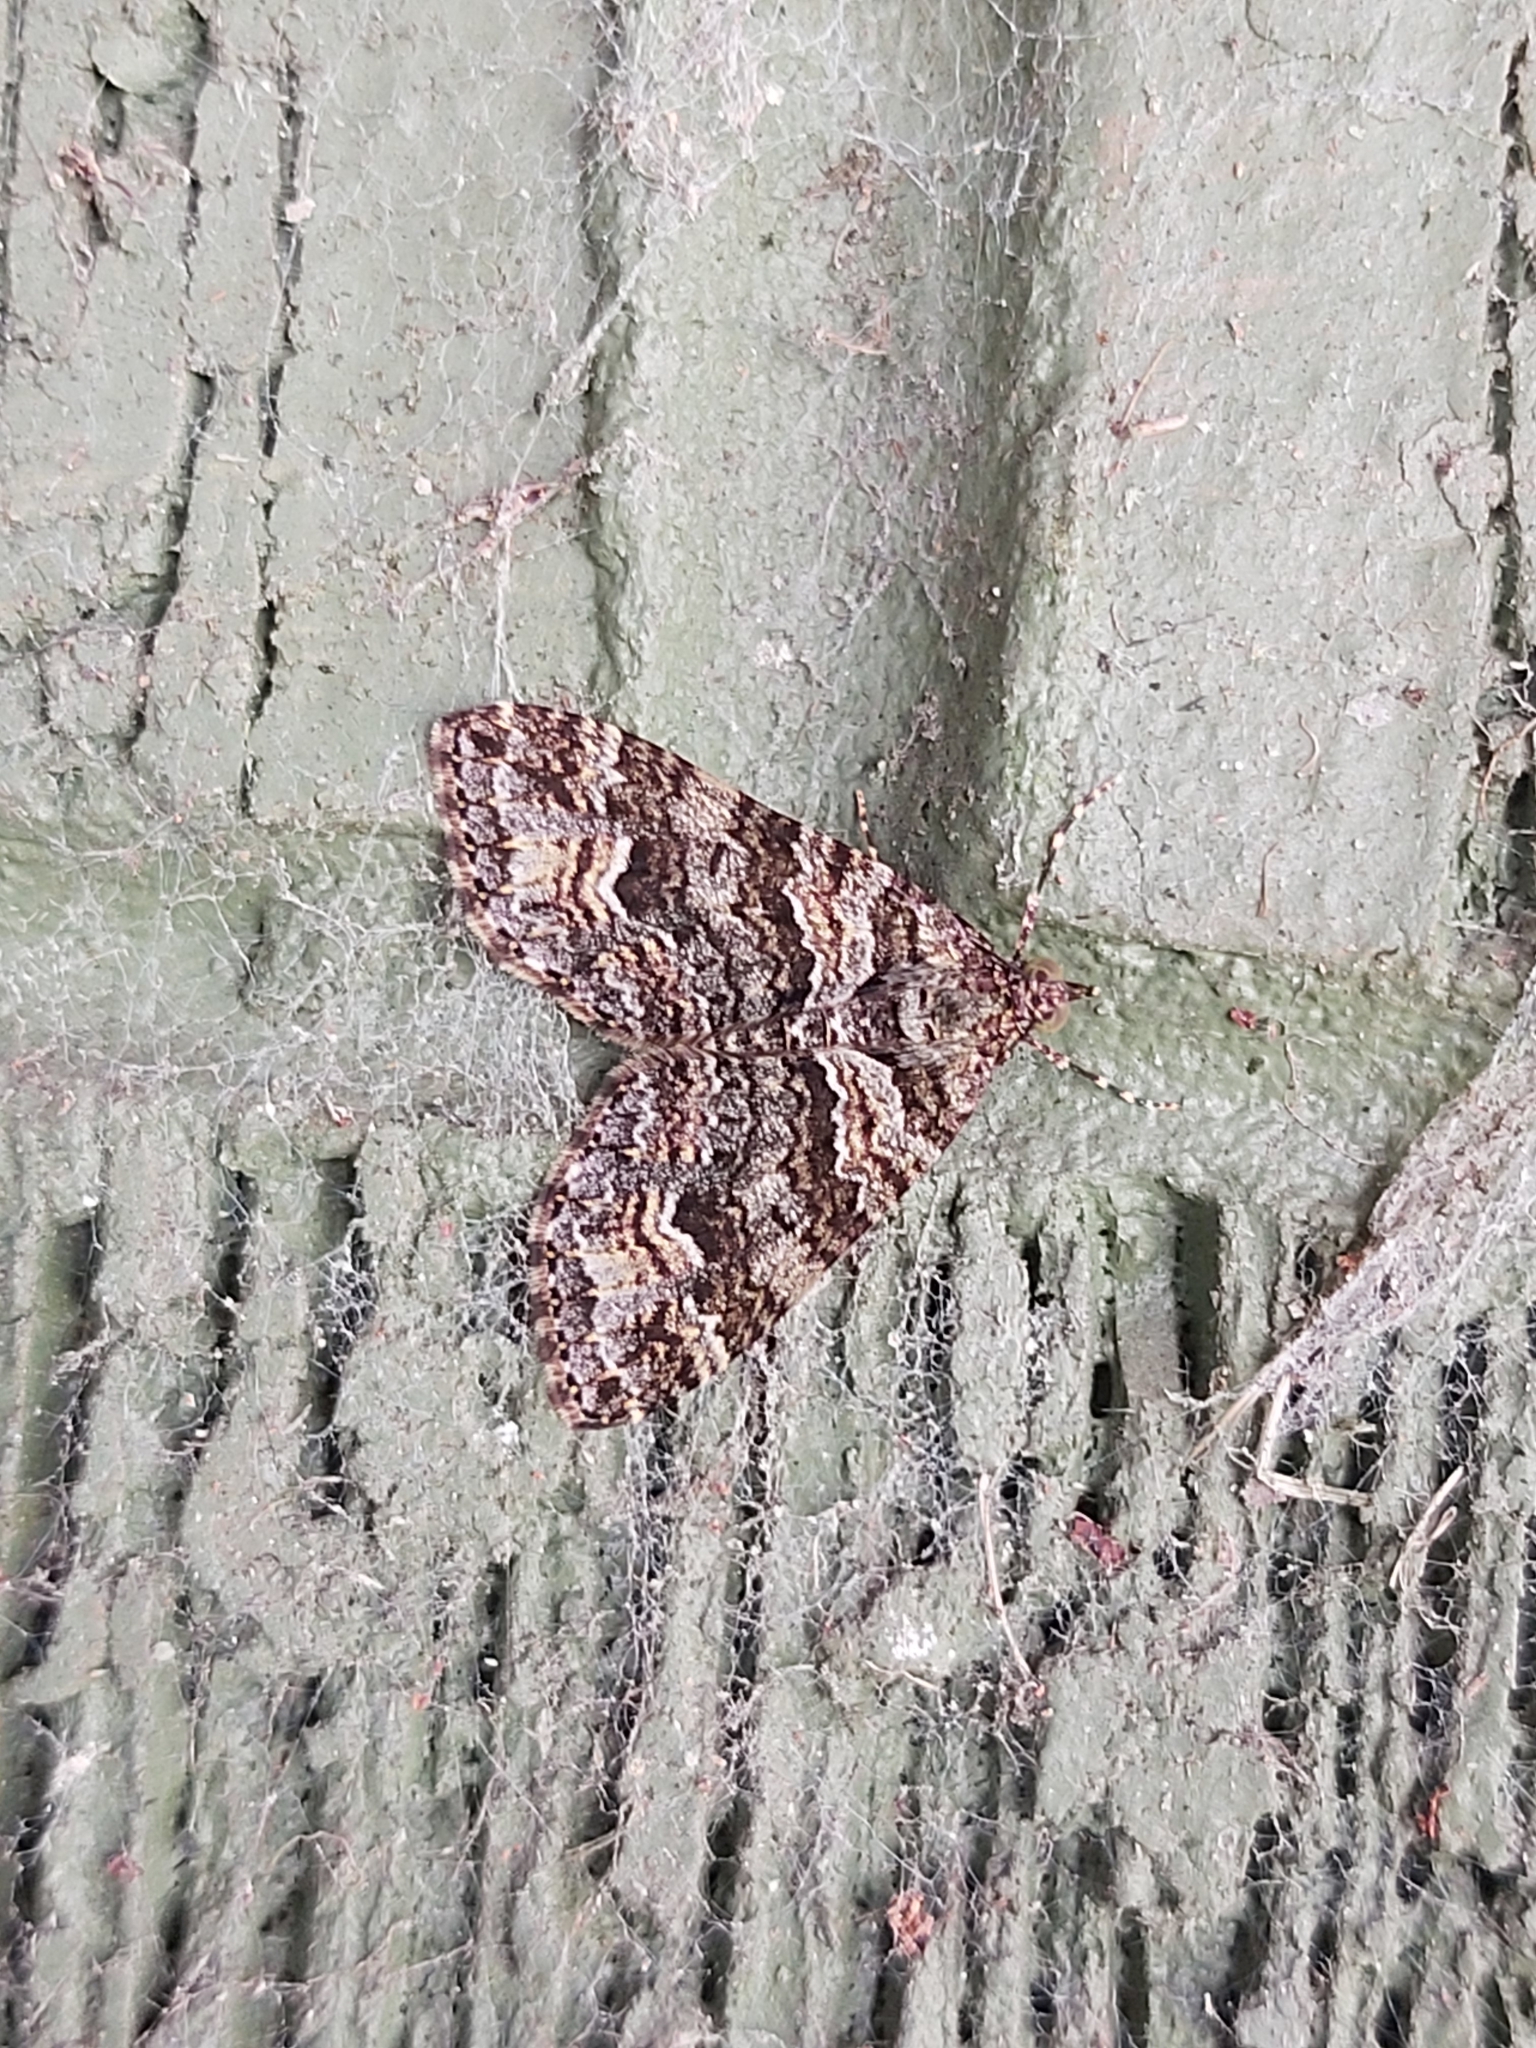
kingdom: Animalia
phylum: Arthropoda
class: Insecta
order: Lepidoptera
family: Geometridae
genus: Crasilogia
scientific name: Crasilogia gressitti
